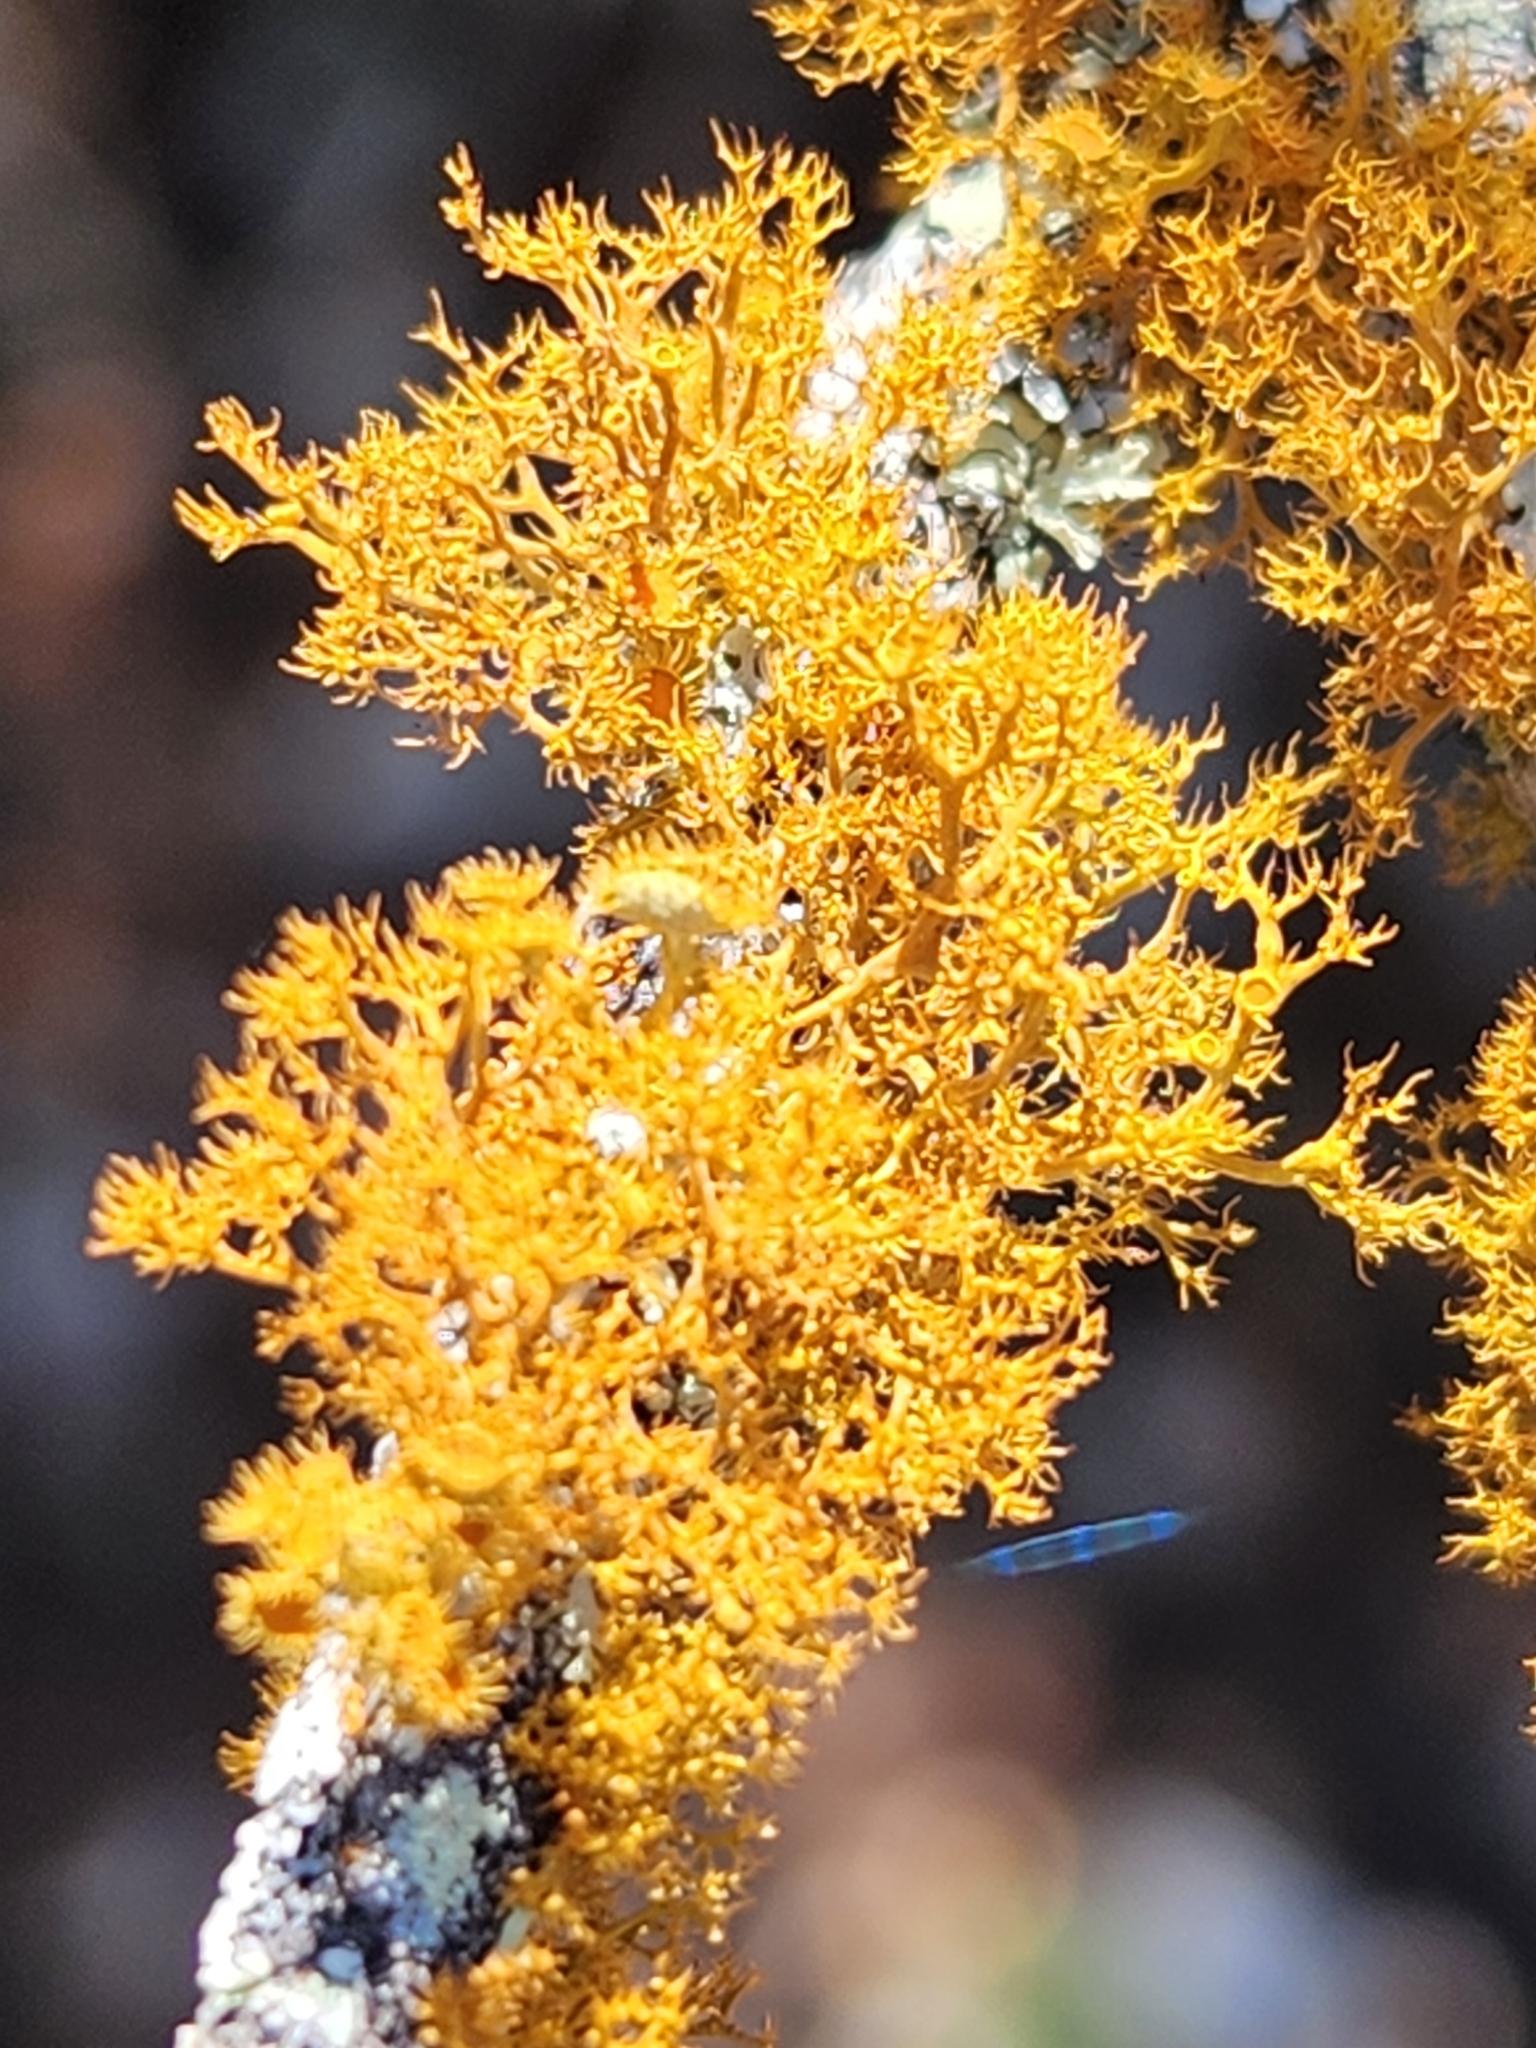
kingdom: Fungi
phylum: Ascomycota
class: Lecanoromycetes
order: Teloschistales
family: Teloschistaceae
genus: Teloschistes
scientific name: Teloschistes exilis
